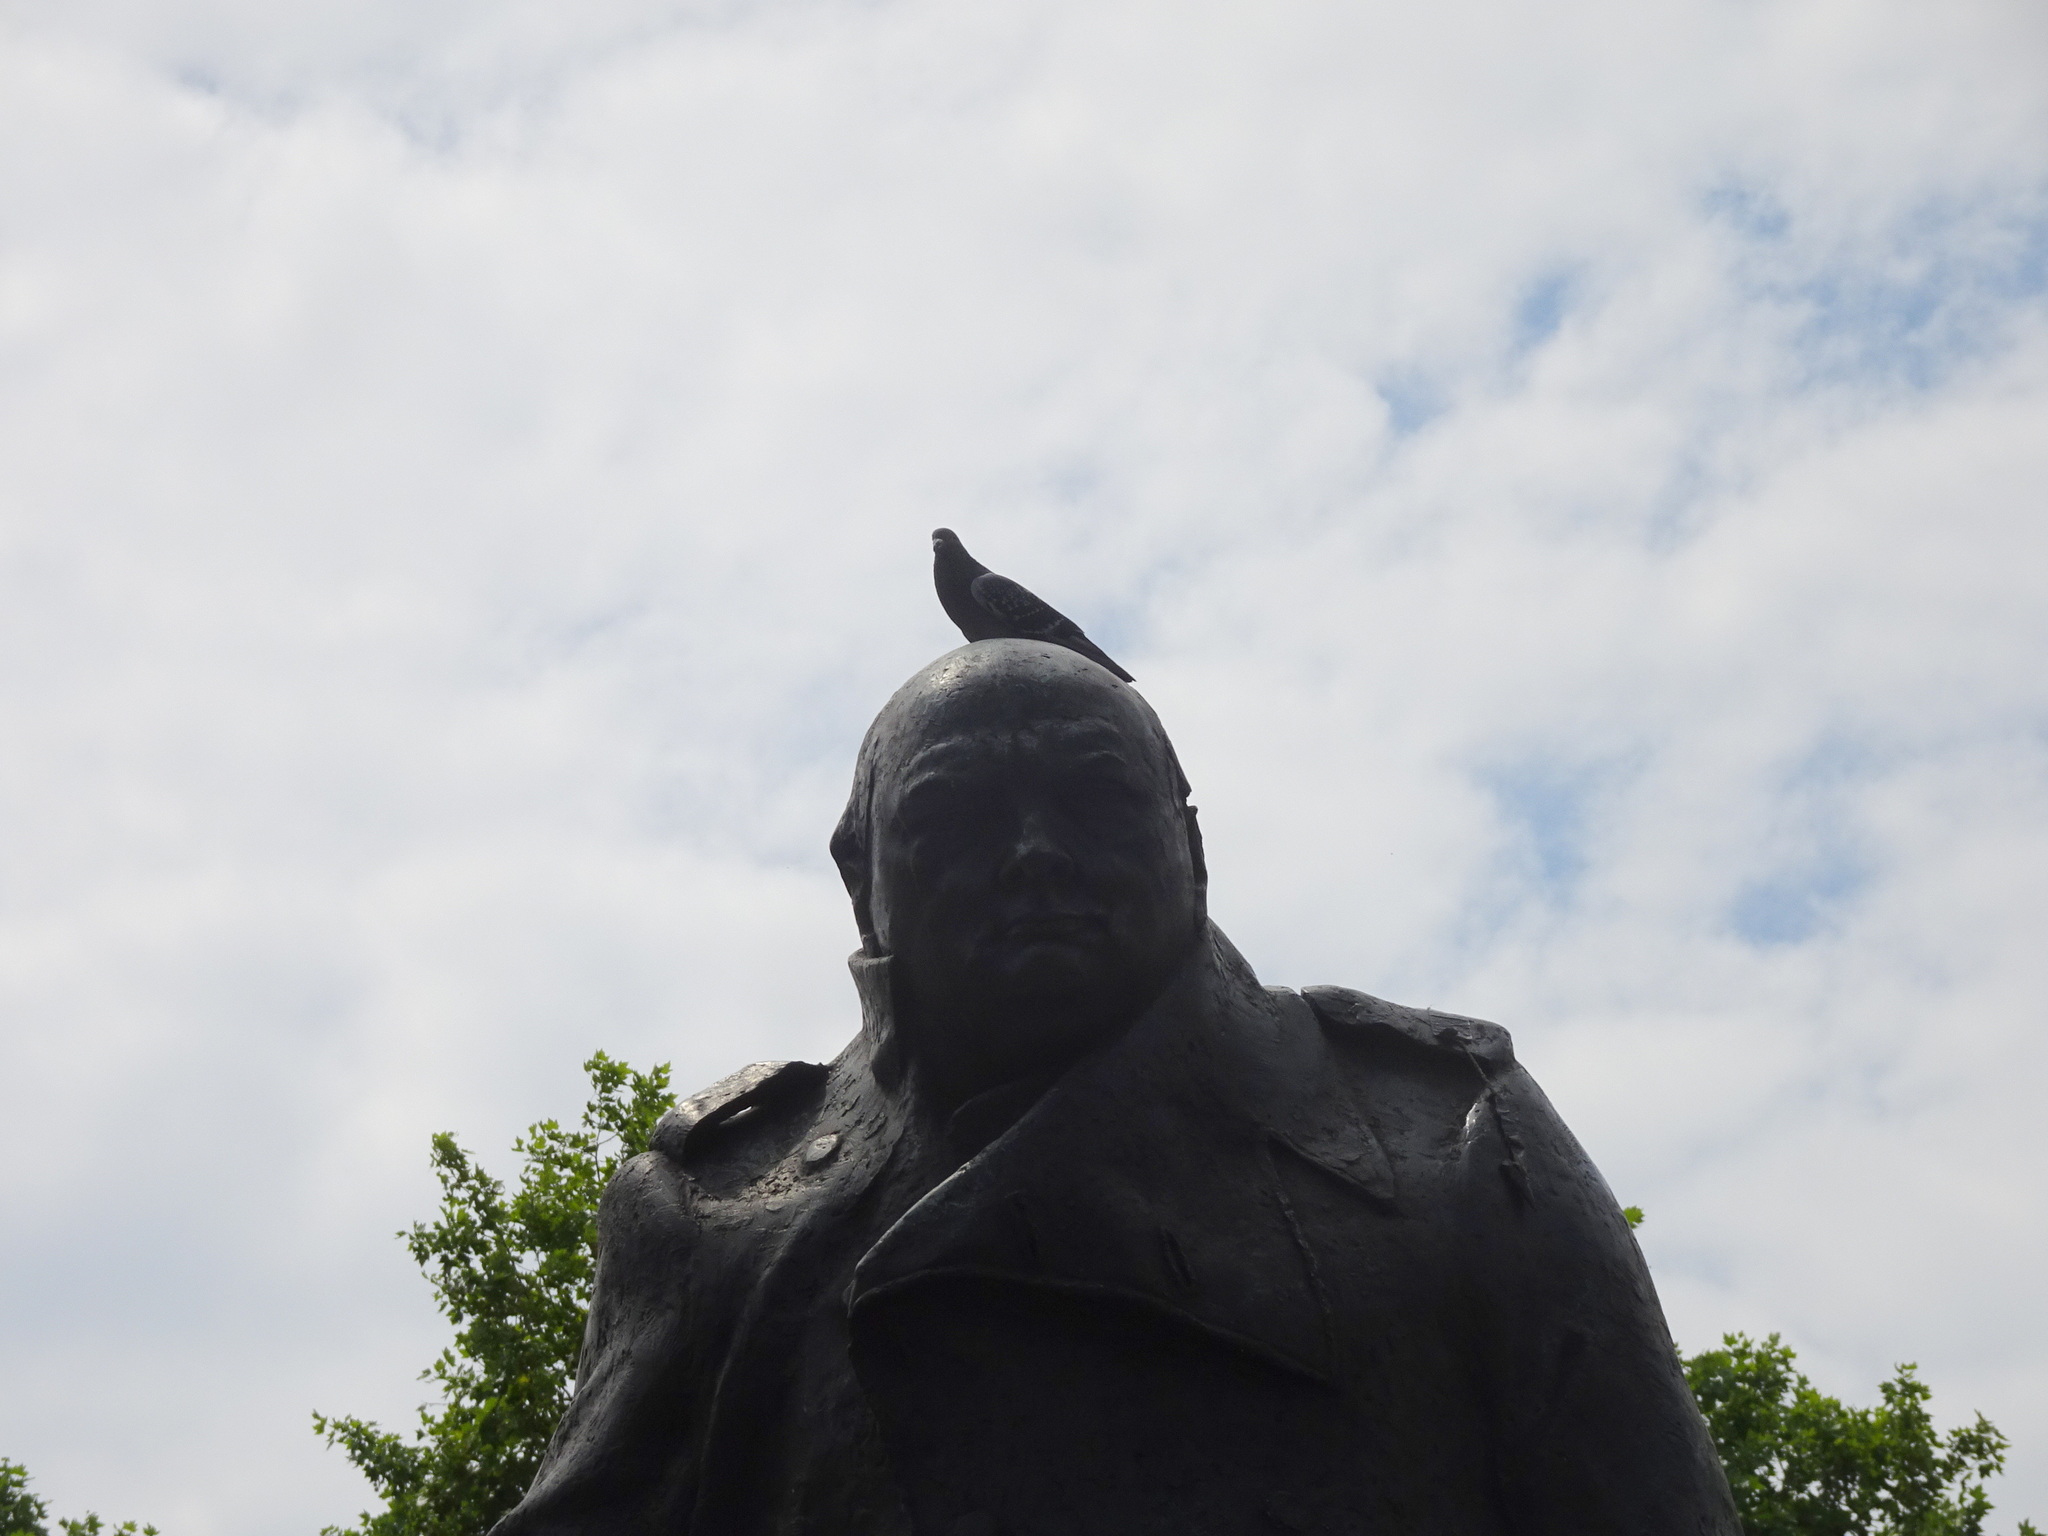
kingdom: Animalia
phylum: Chordata
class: Aves
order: Columbiformes
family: Columbidae
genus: Columba
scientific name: Columba livia
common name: Rock pigeon
